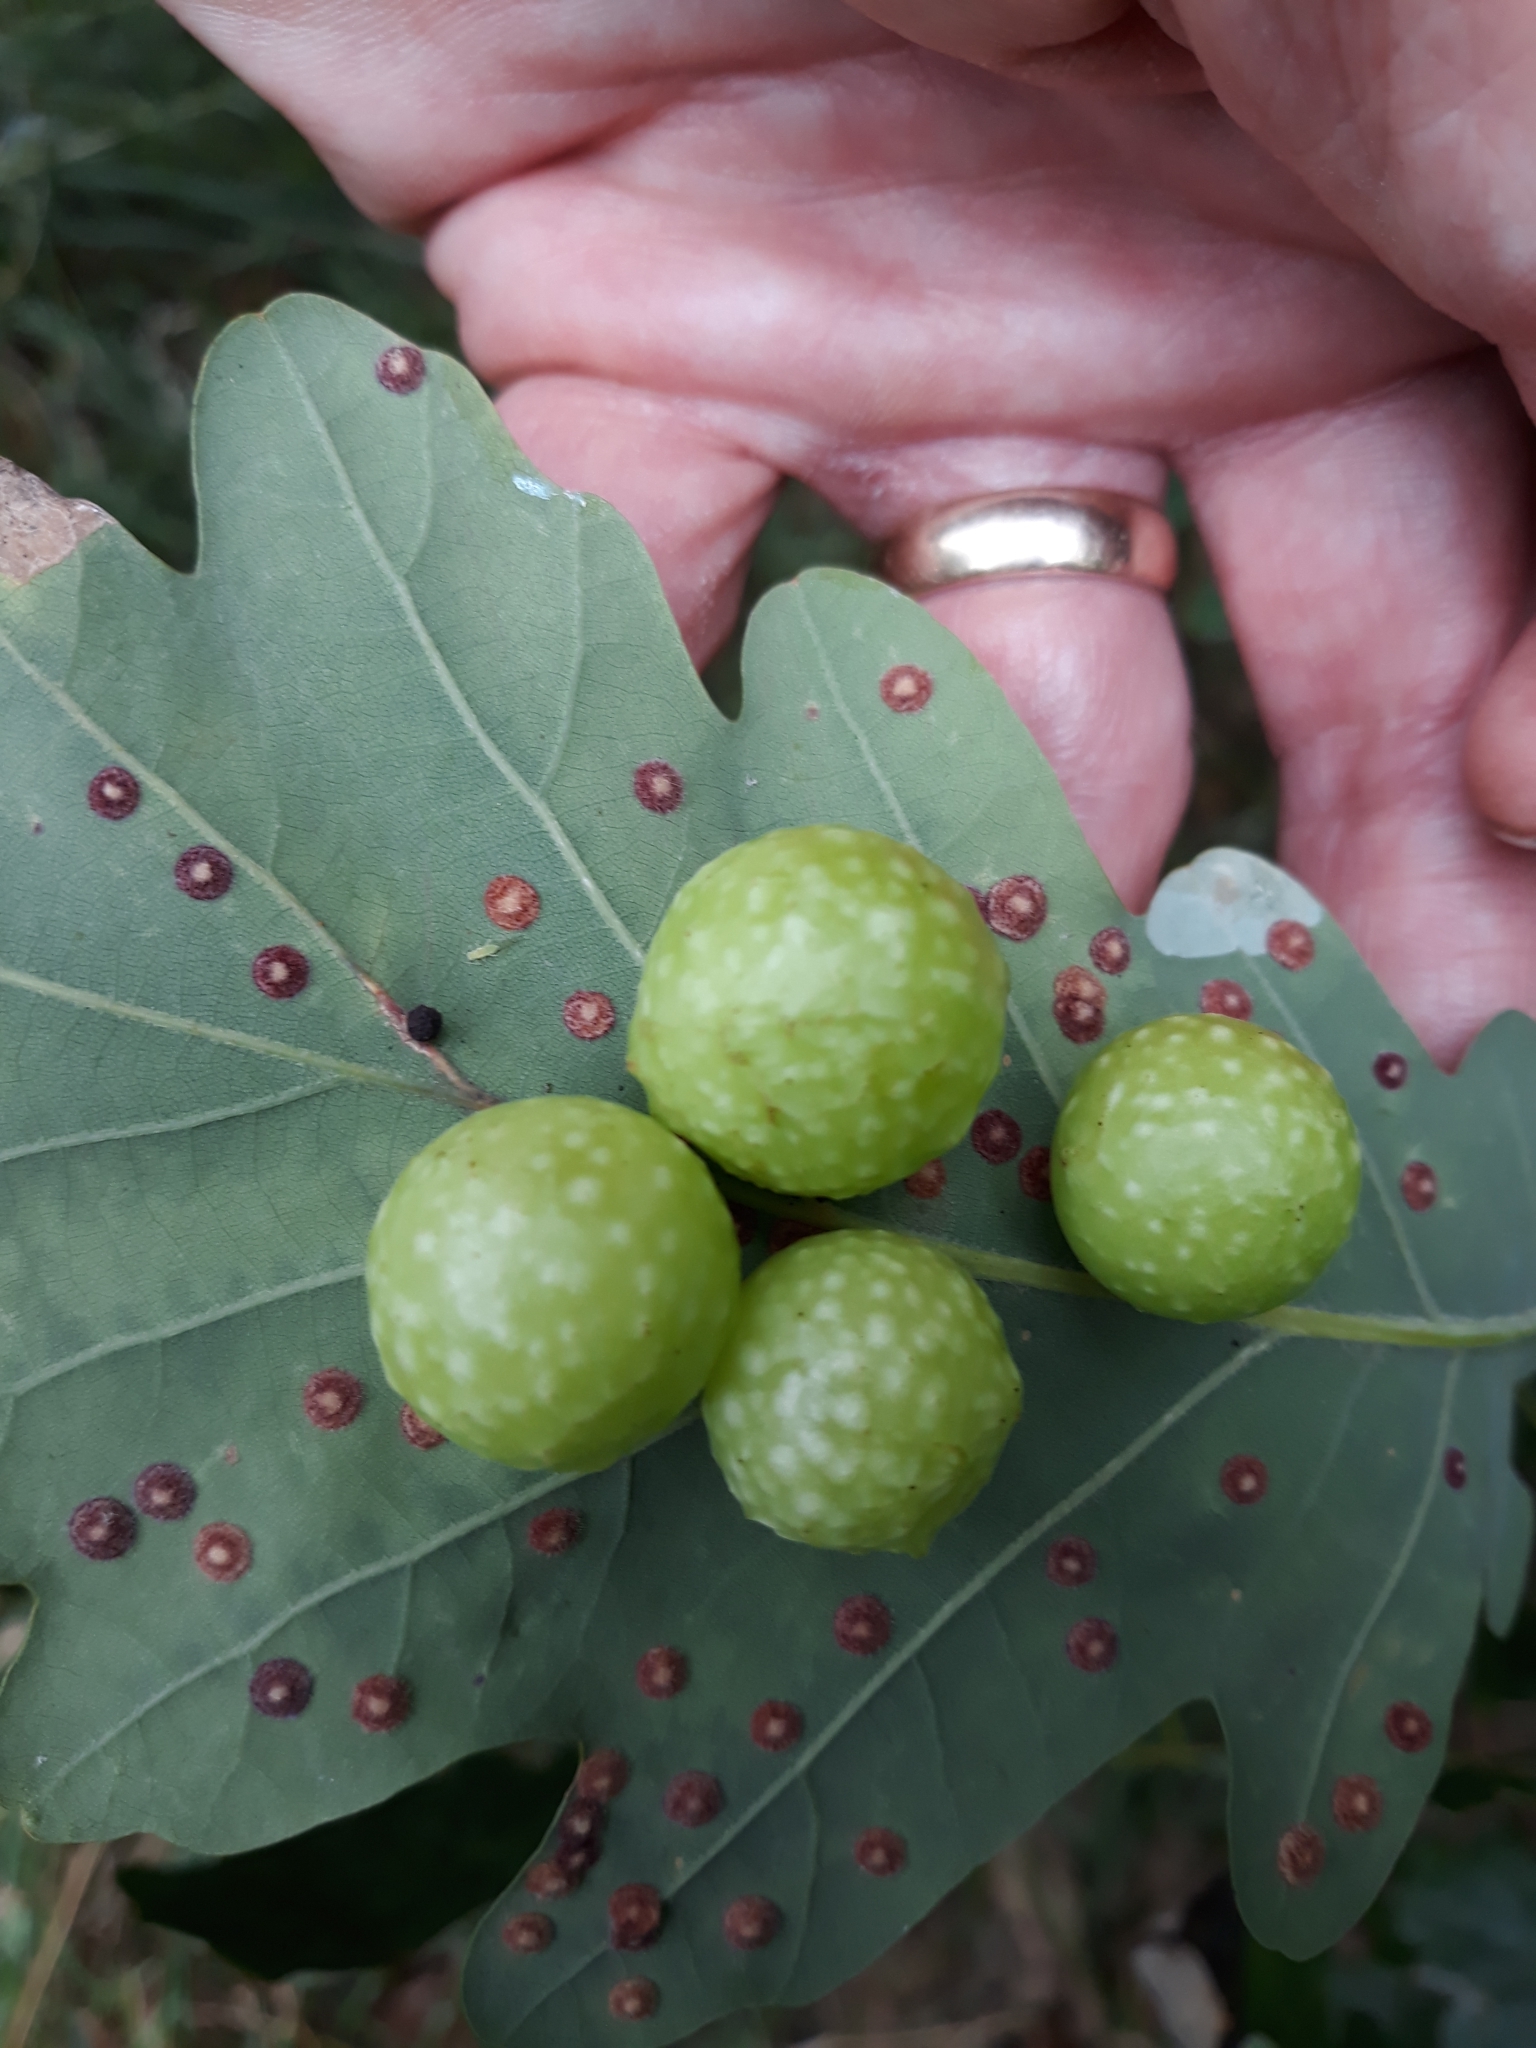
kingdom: Animalia
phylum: Arthropoda
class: Insecta
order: Hymenoptera
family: Cynipidae
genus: Cynips
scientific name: Cynips quercusfolii
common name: Cherry gall
